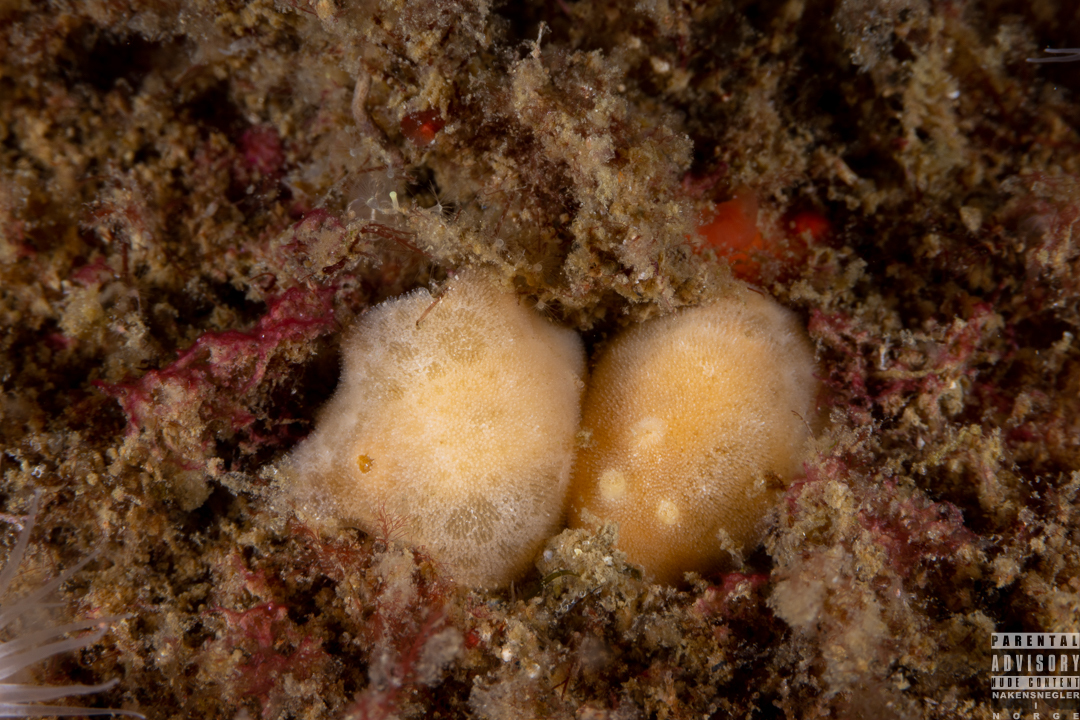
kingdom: Animalia
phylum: Mollusca
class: Gastropoda
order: Nudibranchia
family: Discodorididae
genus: Jorunna
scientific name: Jorunna tomentosa
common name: Grey sea slug
